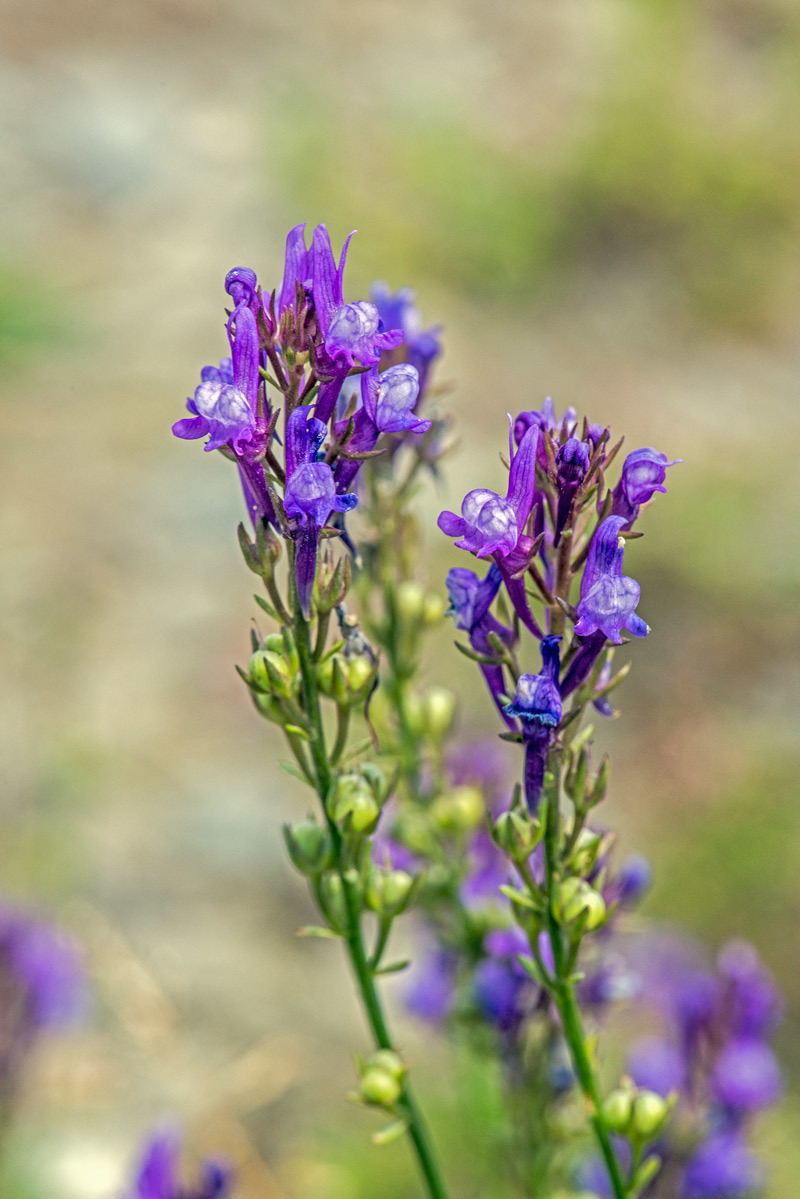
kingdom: Plantae
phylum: Tracheophyta
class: Magnoliopsida
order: Lamiales
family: Plantaginaceae
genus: Linaria
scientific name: Linaria pelisseriana
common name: Jersey toadflax
